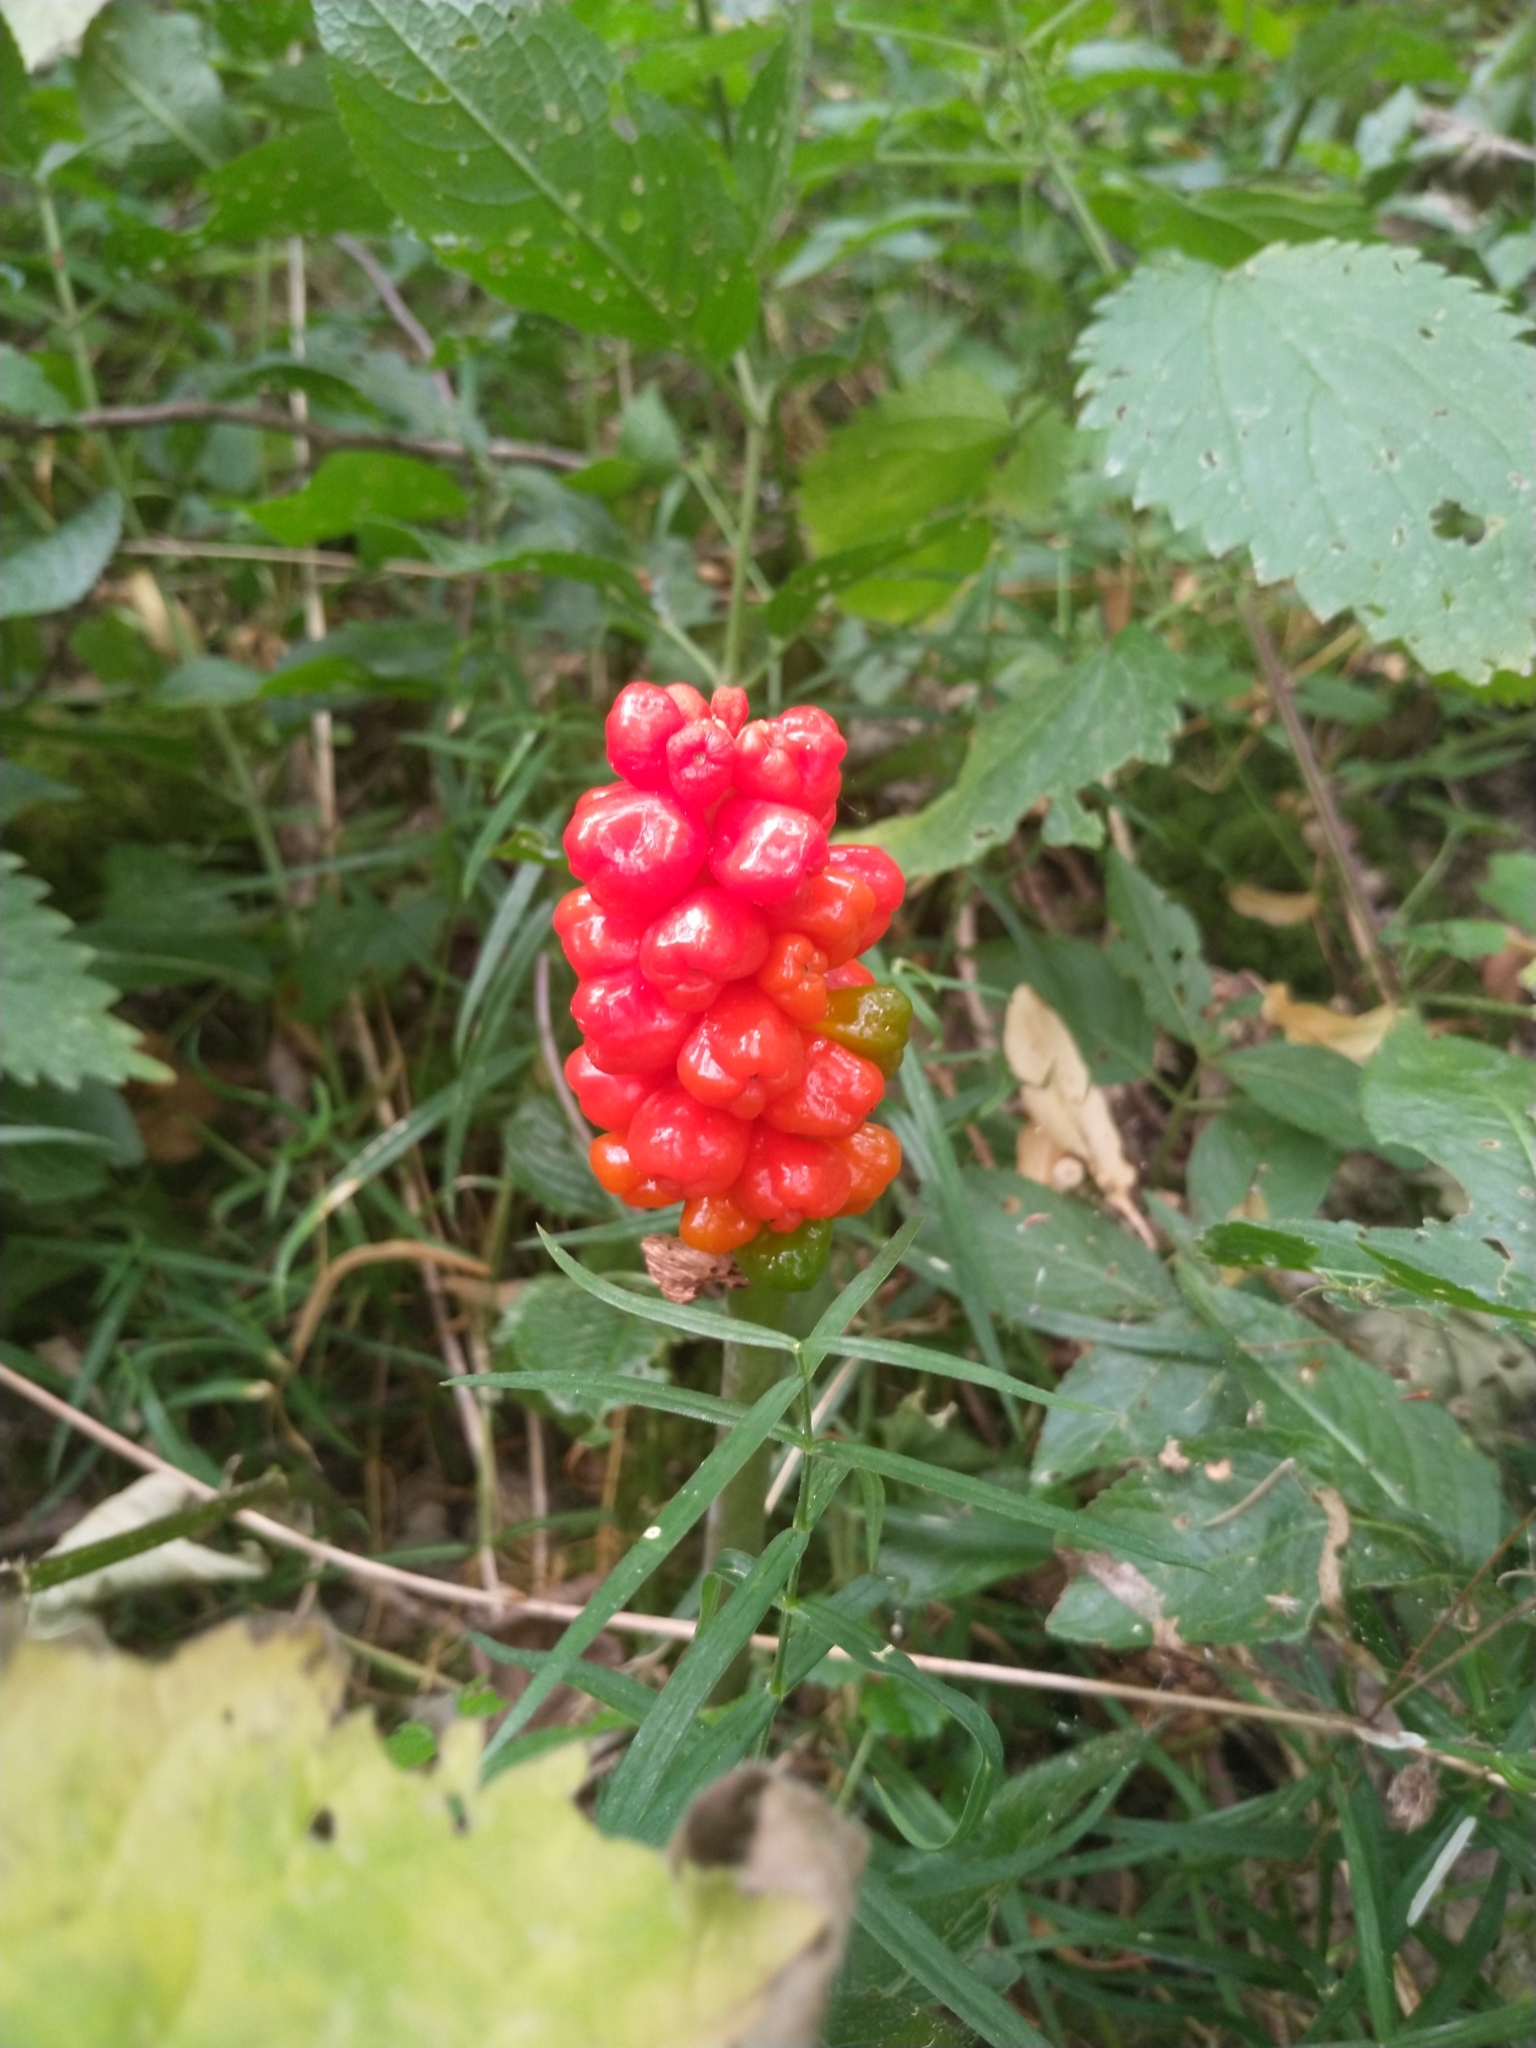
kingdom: Plantae
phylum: Tracheophyta
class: Liliopsida
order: Alismatales
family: Araceae
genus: Arum
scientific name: Arum maculatum
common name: Lords-and-ladies
